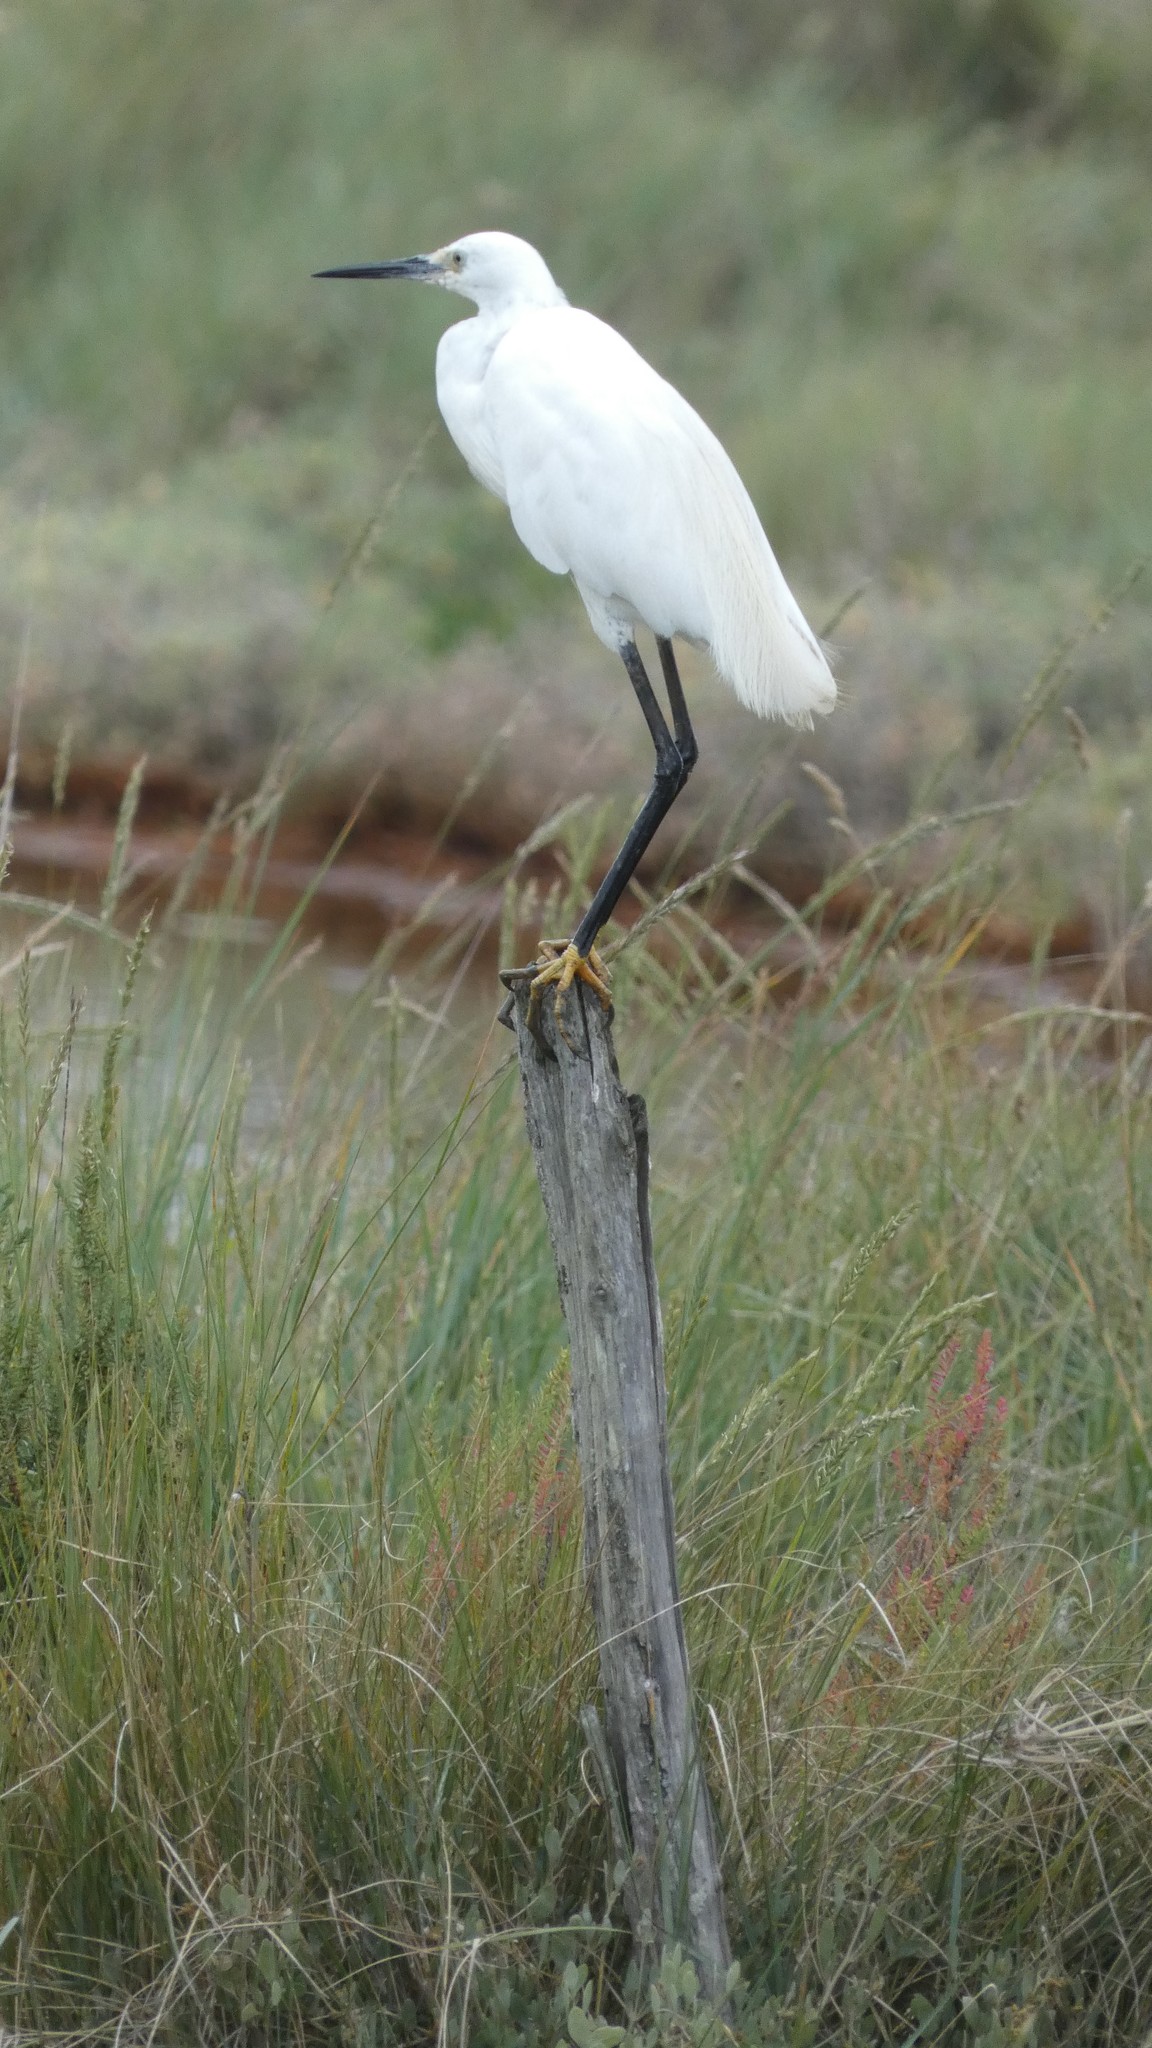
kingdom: Animalia
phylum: Chordata
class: Aves
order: Pelecaniformes
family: Ardeidae
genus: Egretta
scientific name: Egretta garzetta
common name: Little egret
